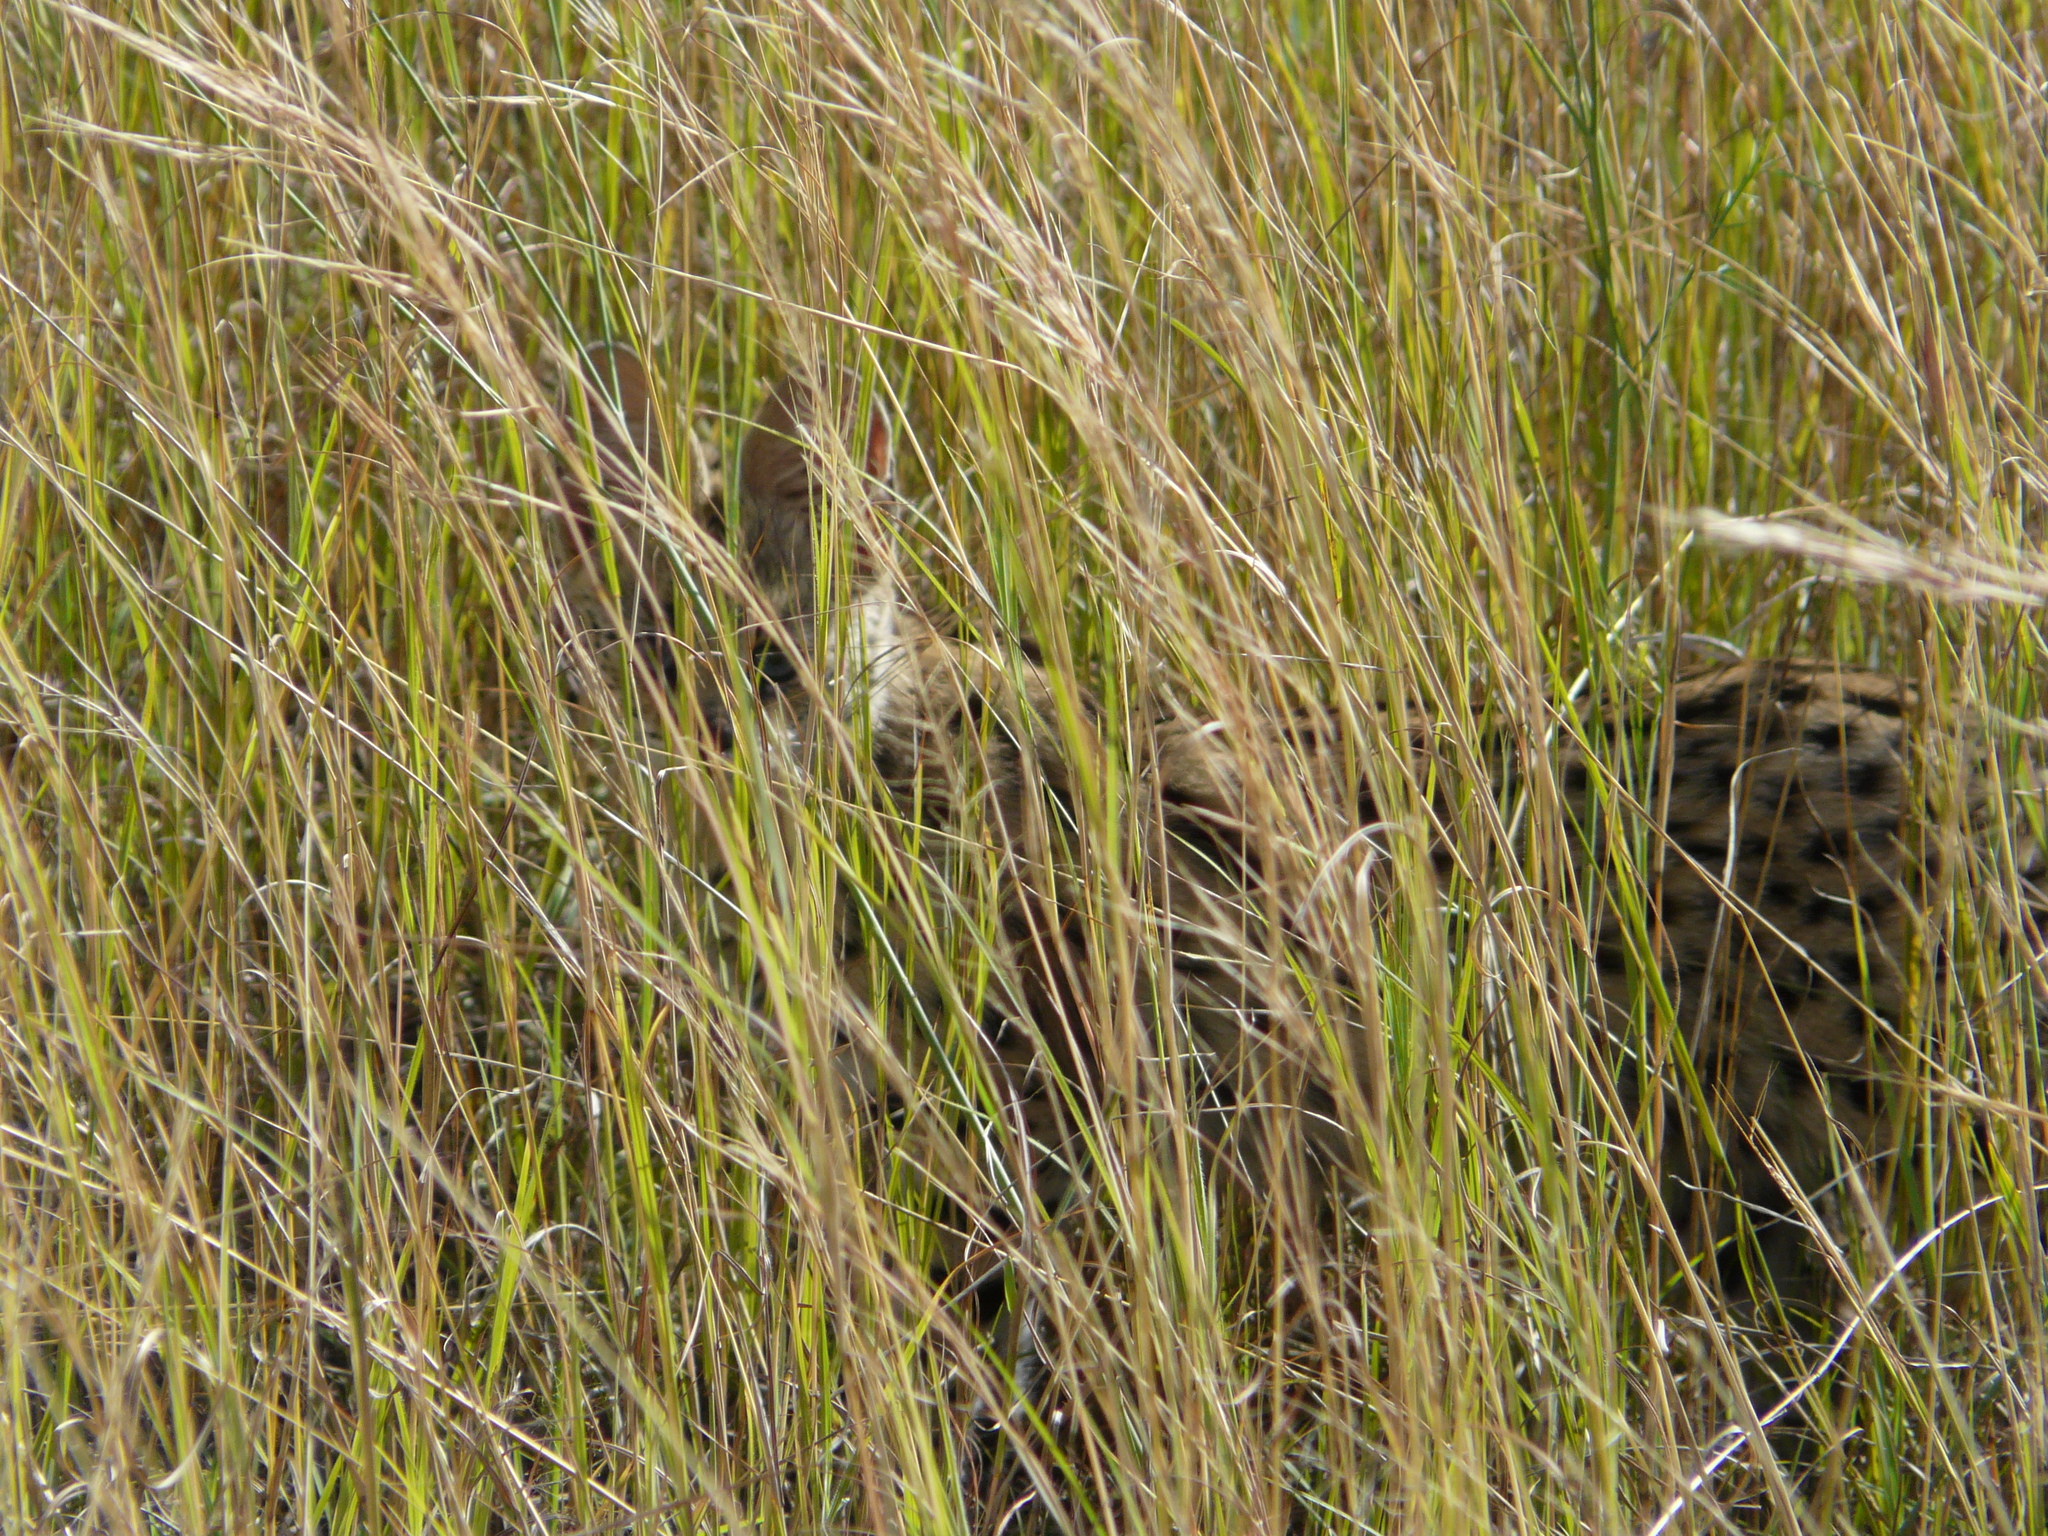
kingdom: Animalia
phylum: Chordata
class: Mammalia
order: Carnivora
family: Felidae
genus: Leptailurus
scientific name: Leptailurus serval
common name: Serval
